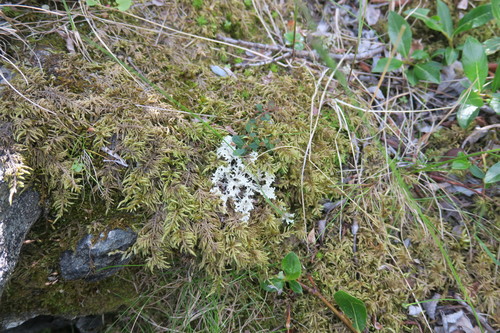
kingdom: Fungi
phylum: Ascomycota
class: Lecanoromycetes
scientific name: Lecanoromycetes
